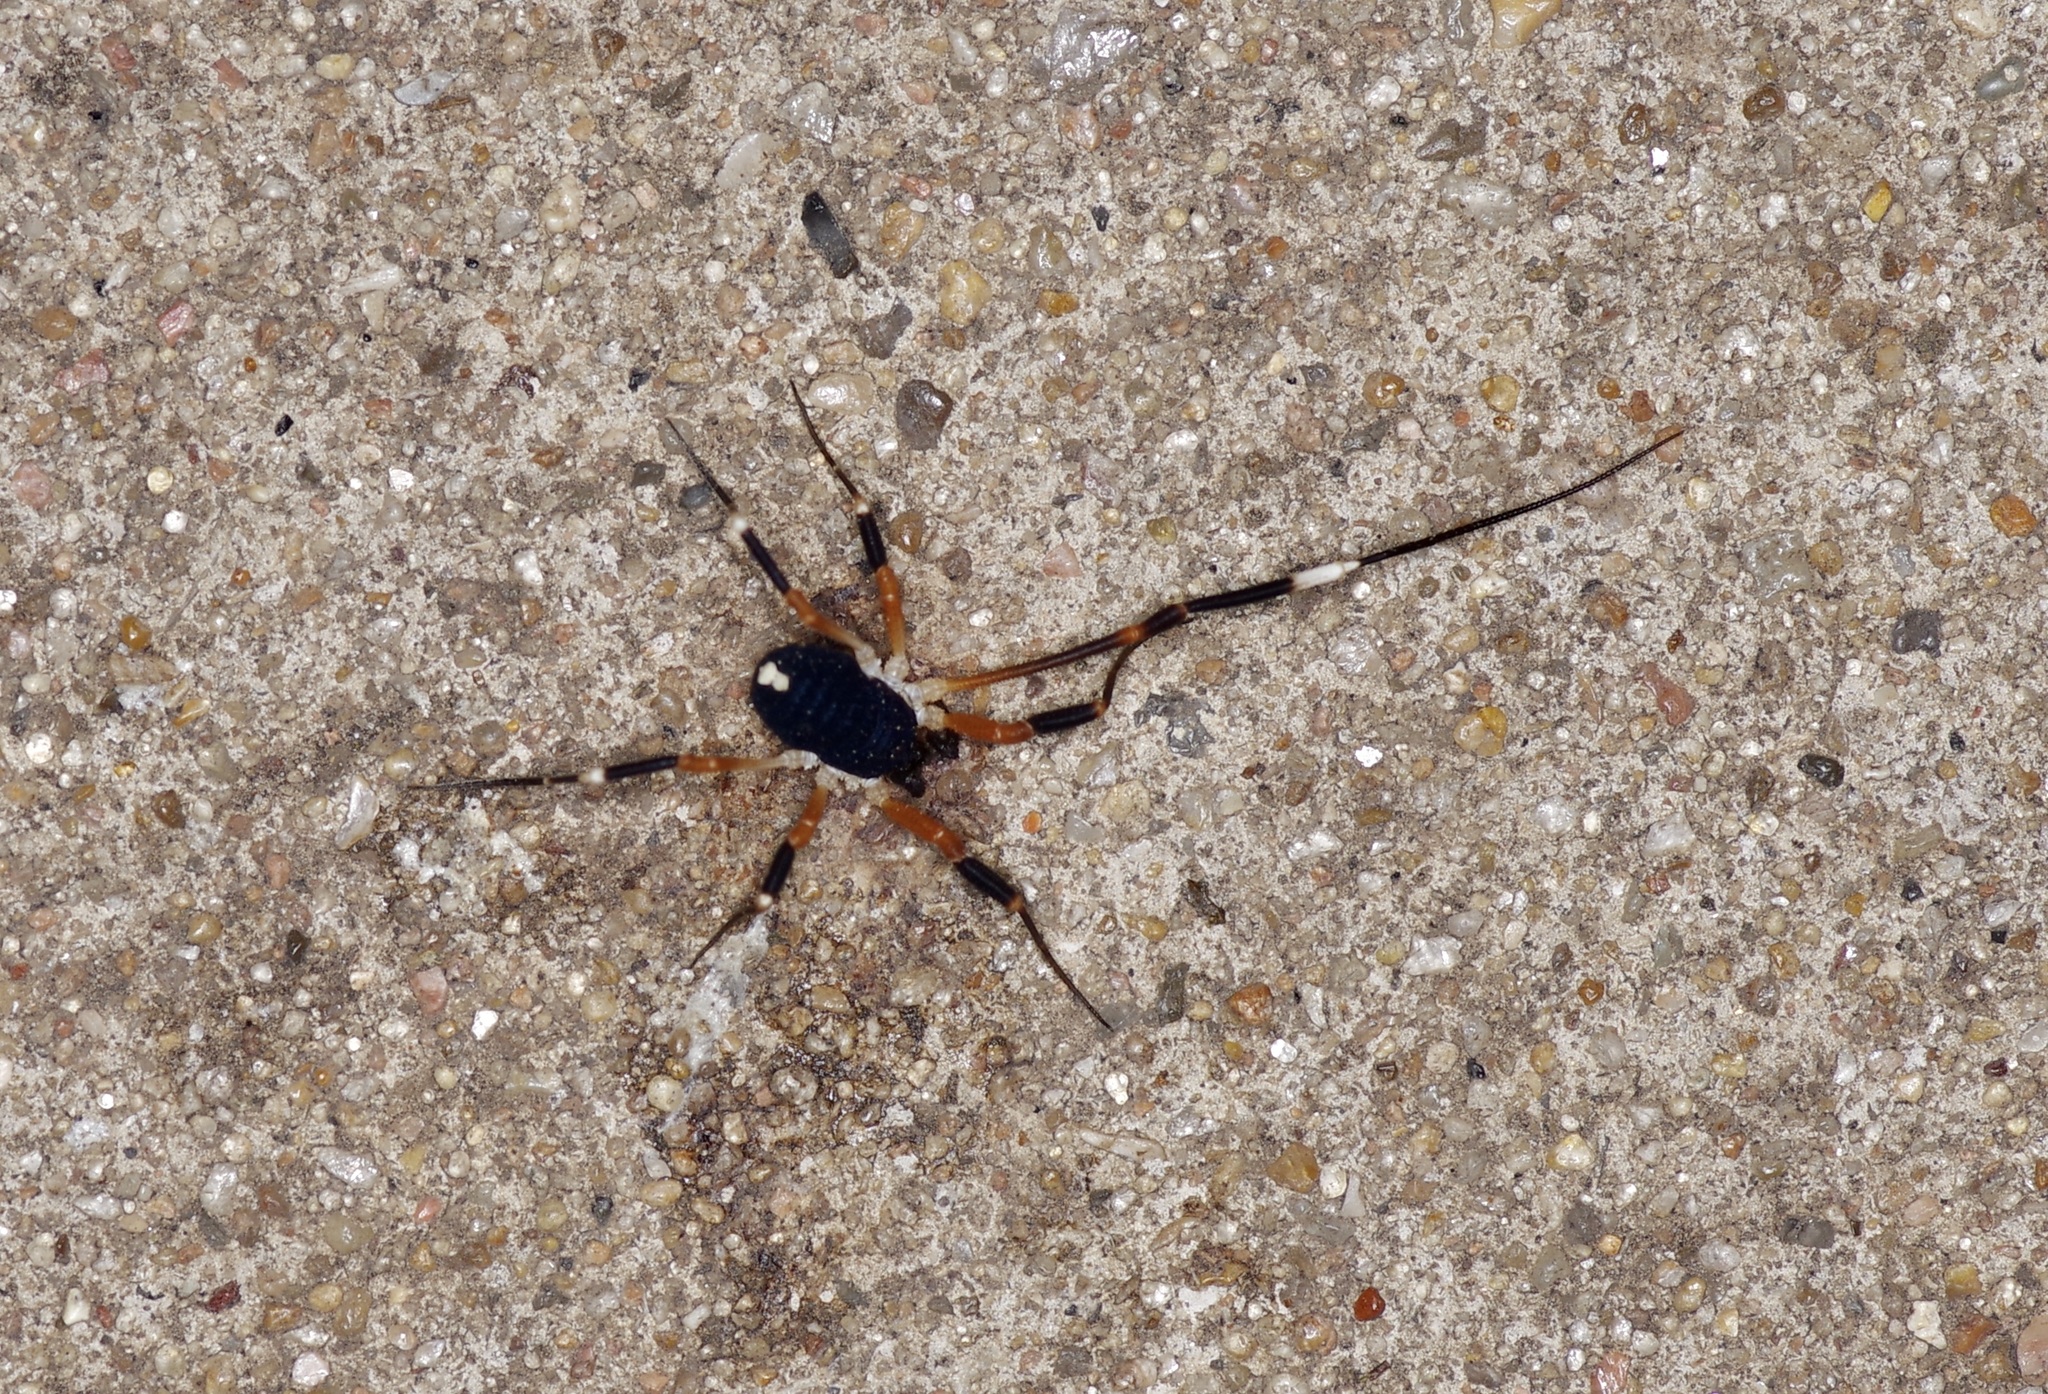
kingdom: Animalia
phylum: Arthropoda
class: Arachnida
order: Opiliones
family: Globipedidae
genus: Dalquestia
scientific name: Dalquestia formosa
